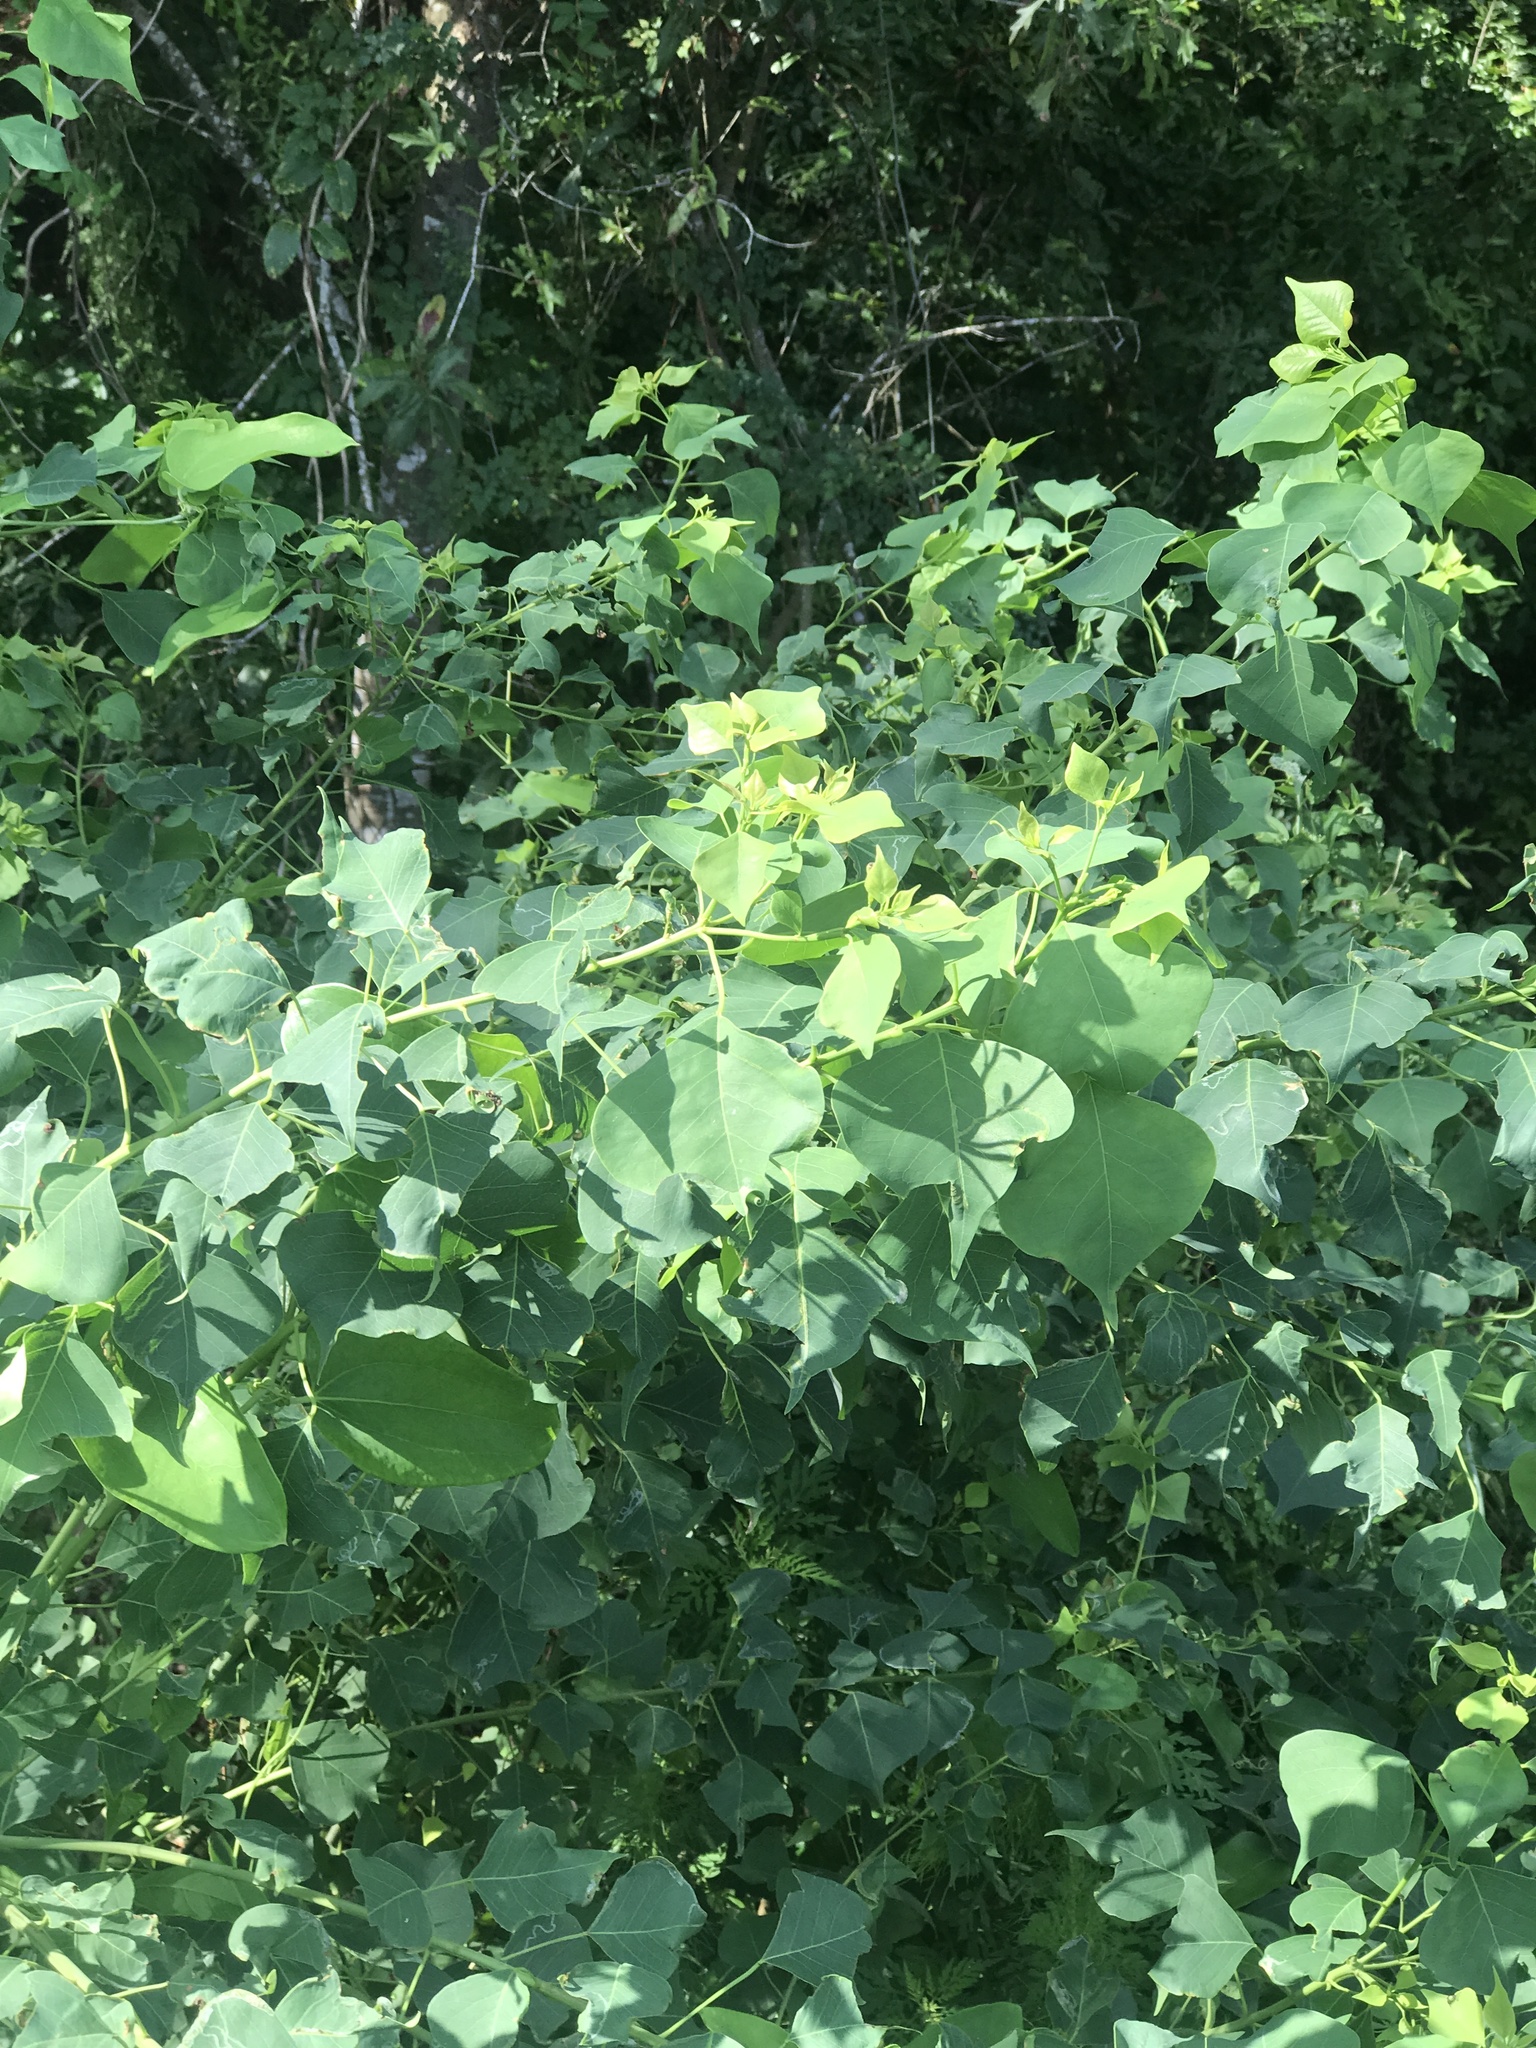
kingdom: Plantae
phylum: Tracheophyta
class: Magnoliopsida
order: Malpighiales
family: Euphorbiaceae
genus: Triadica
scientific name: Triadica sebifera
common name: Chinese tallow
